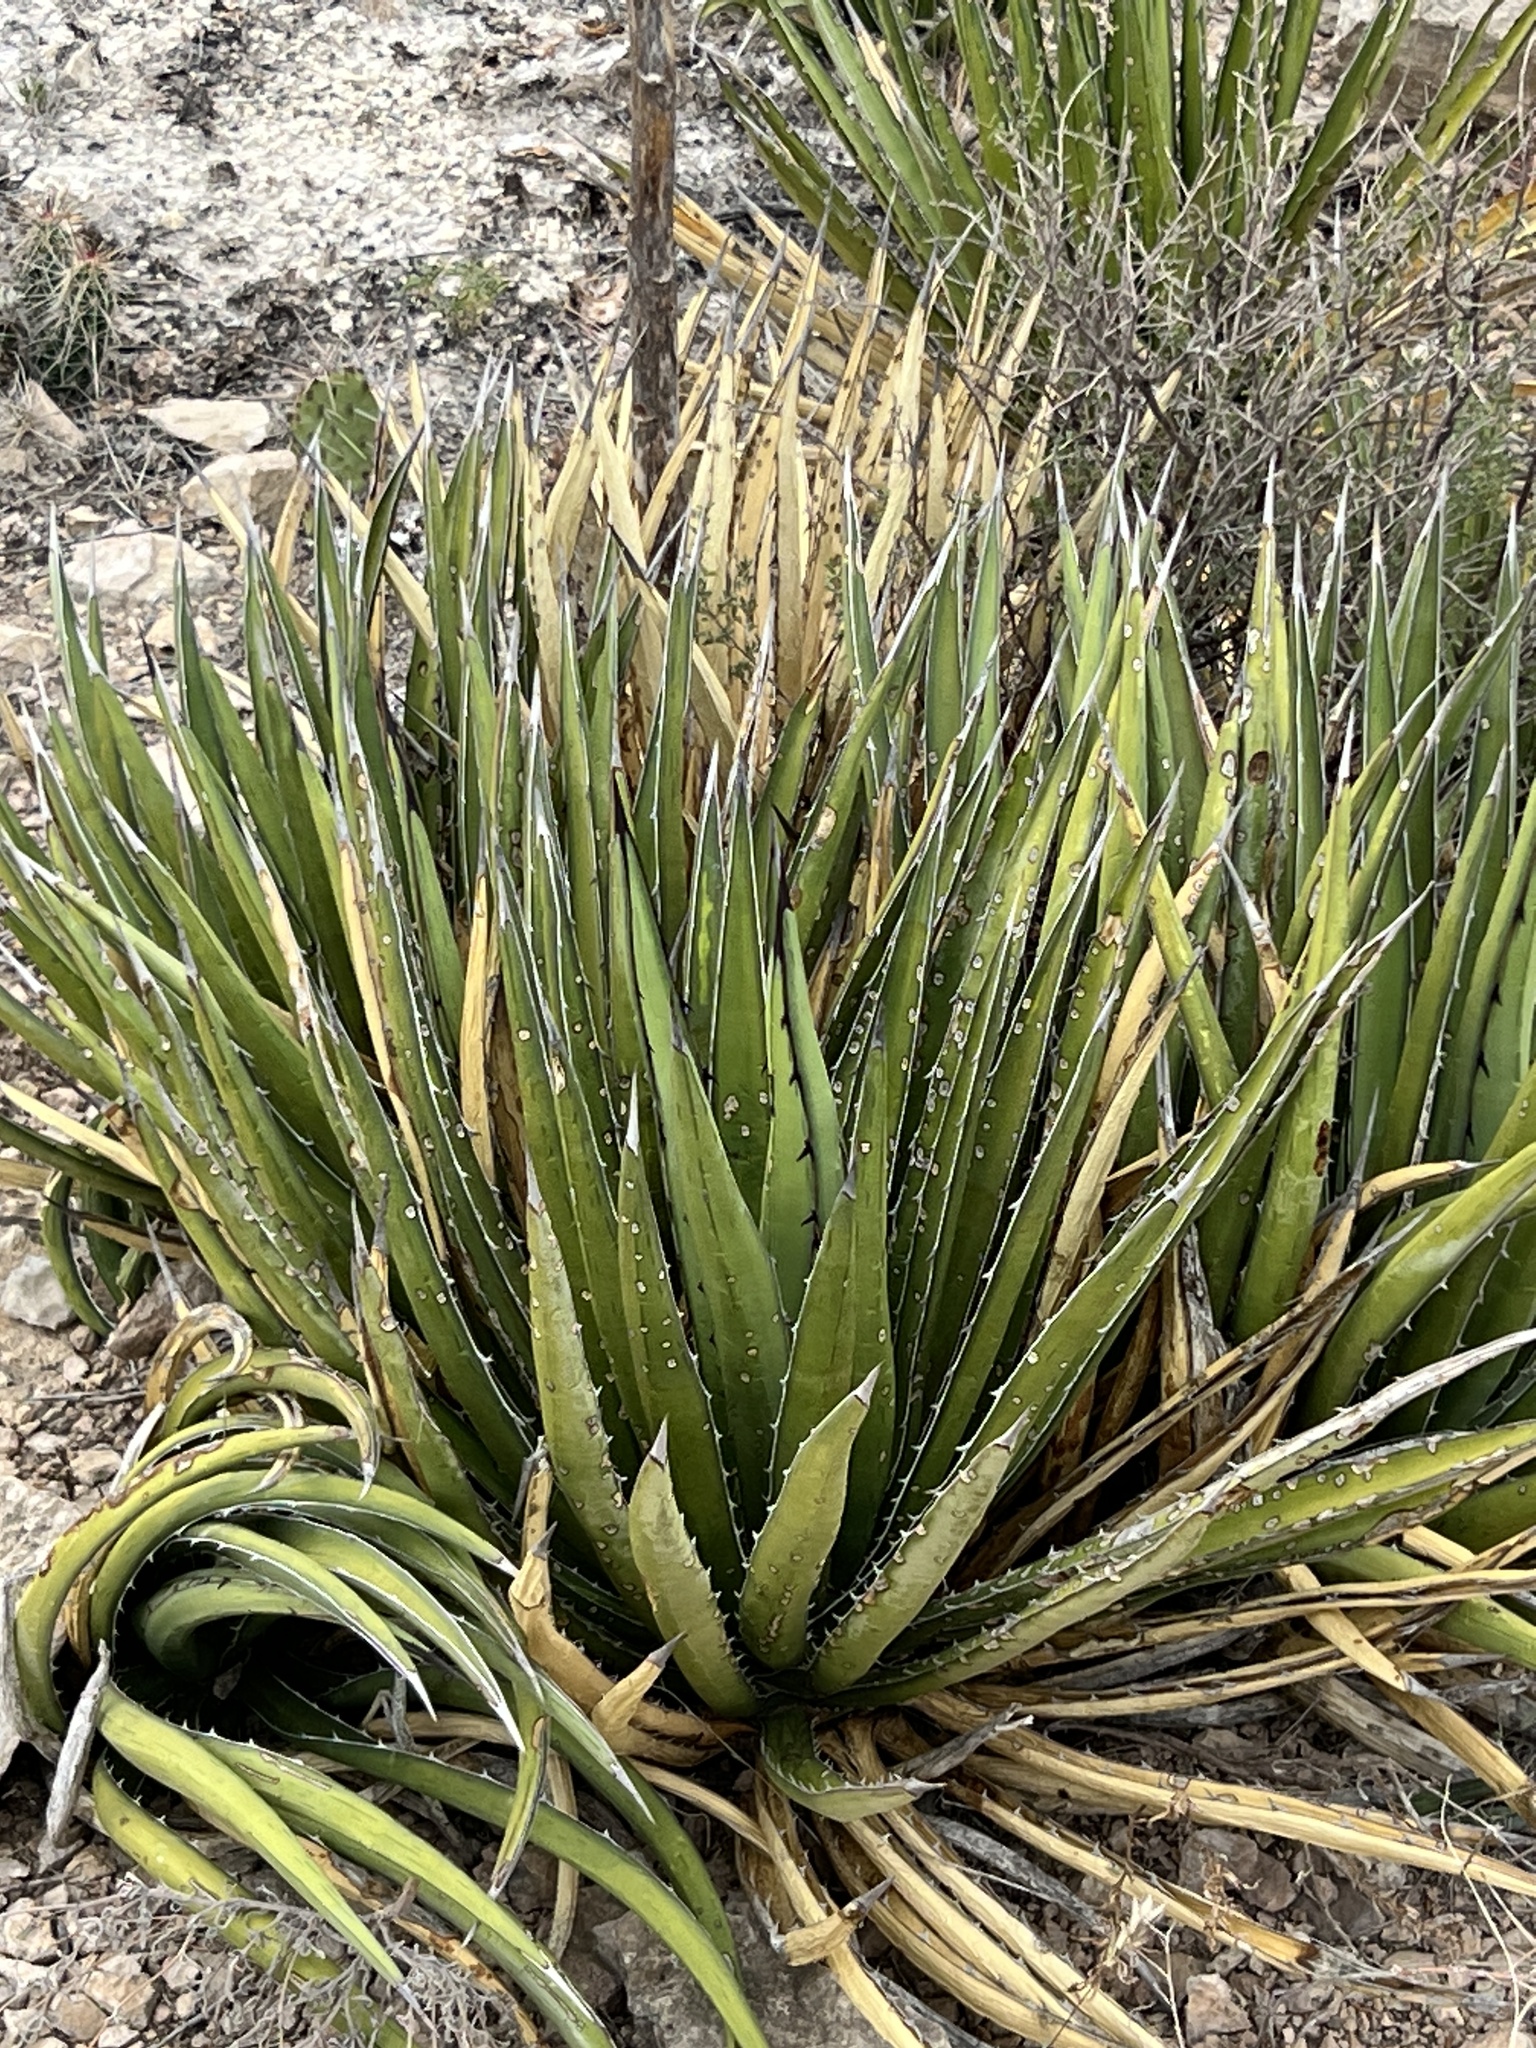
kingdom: Plantae
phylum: Tracheophyta
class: Liliopsida
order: Asparagales
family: Asparagaceae
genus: Agave
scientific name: Agave lechuguilla
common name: Lecheguilla agave
